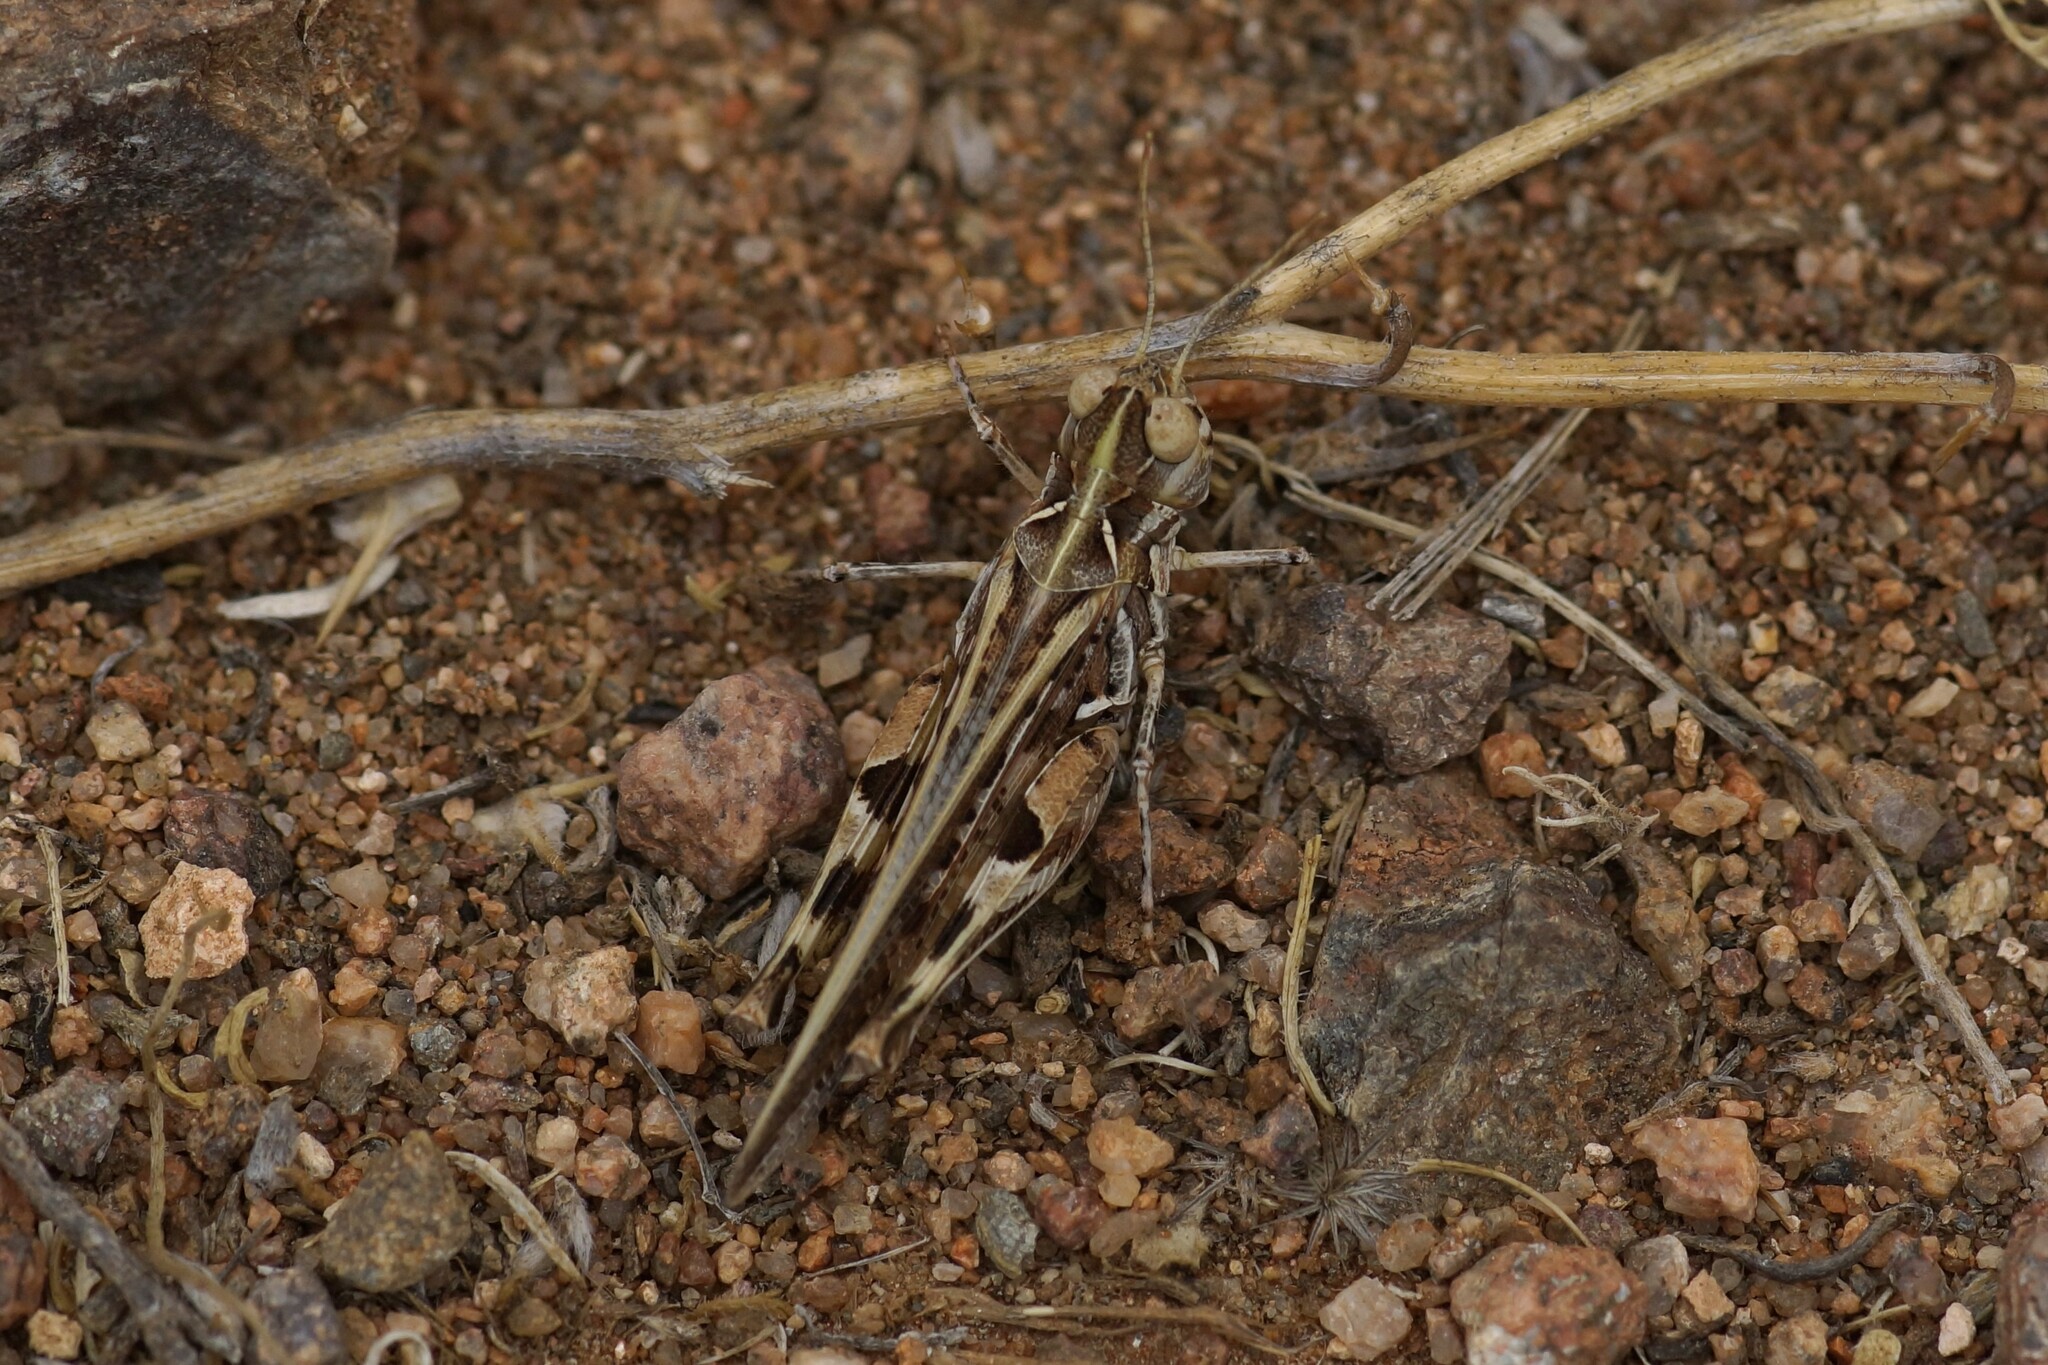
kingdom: Animalia
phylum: Arthropoda
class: Insecta
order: Orthoptera
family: Acrididae
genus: Austroicetes
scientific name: Austroicetes interioris
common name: Inland austroicetes
